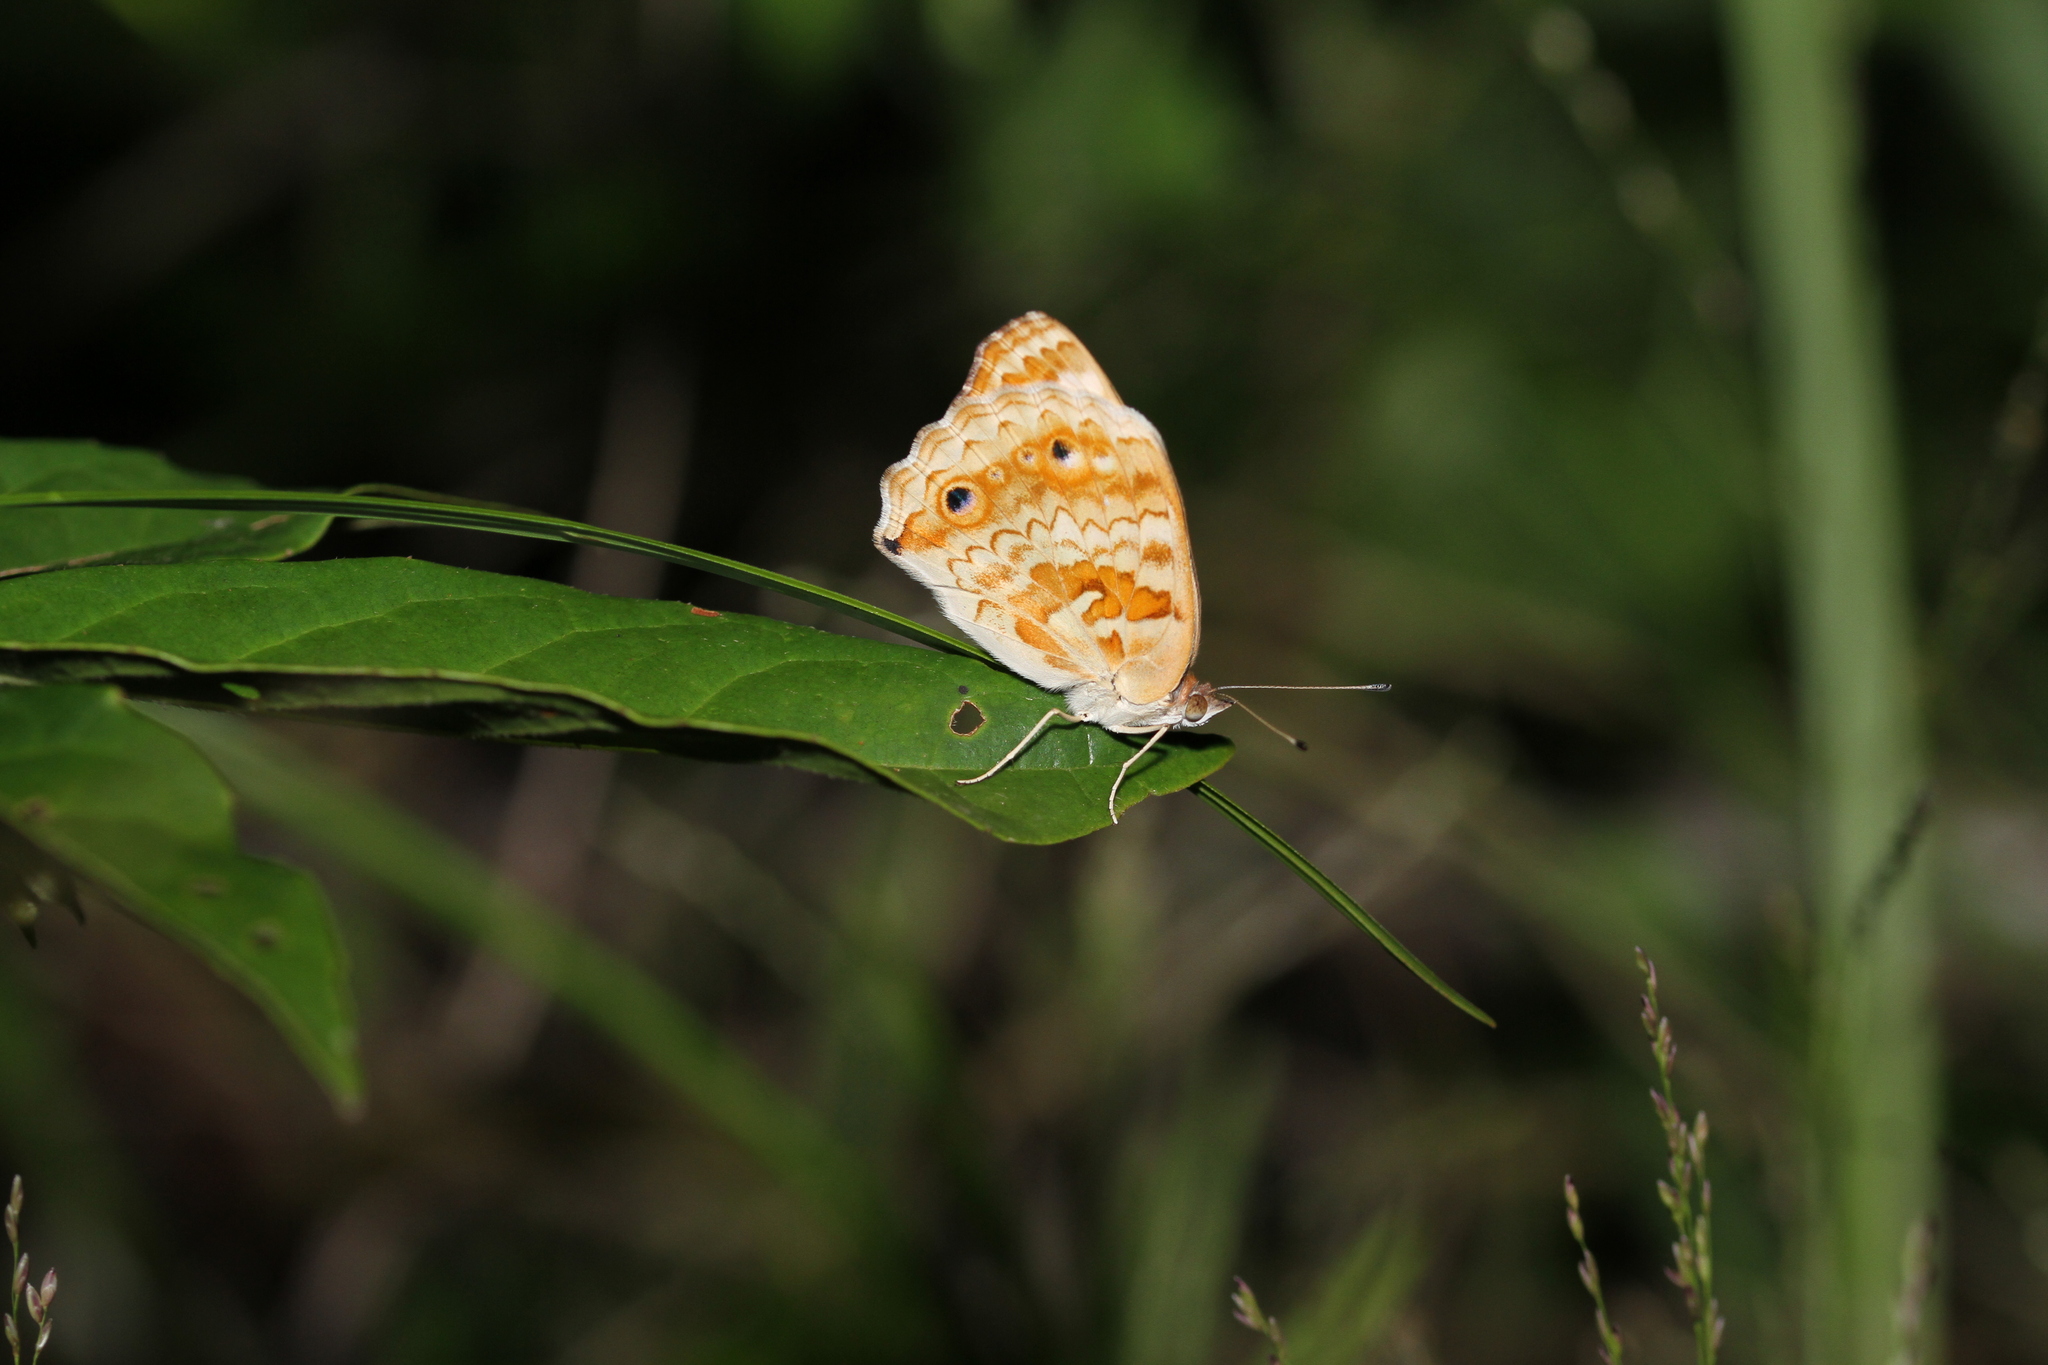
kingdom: Animalia
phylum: Arthropoda
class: Insecta
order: Lepidoptera
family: Nymphalidae
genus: Junonia
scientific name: Junonia orithya
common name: Blue pansy
